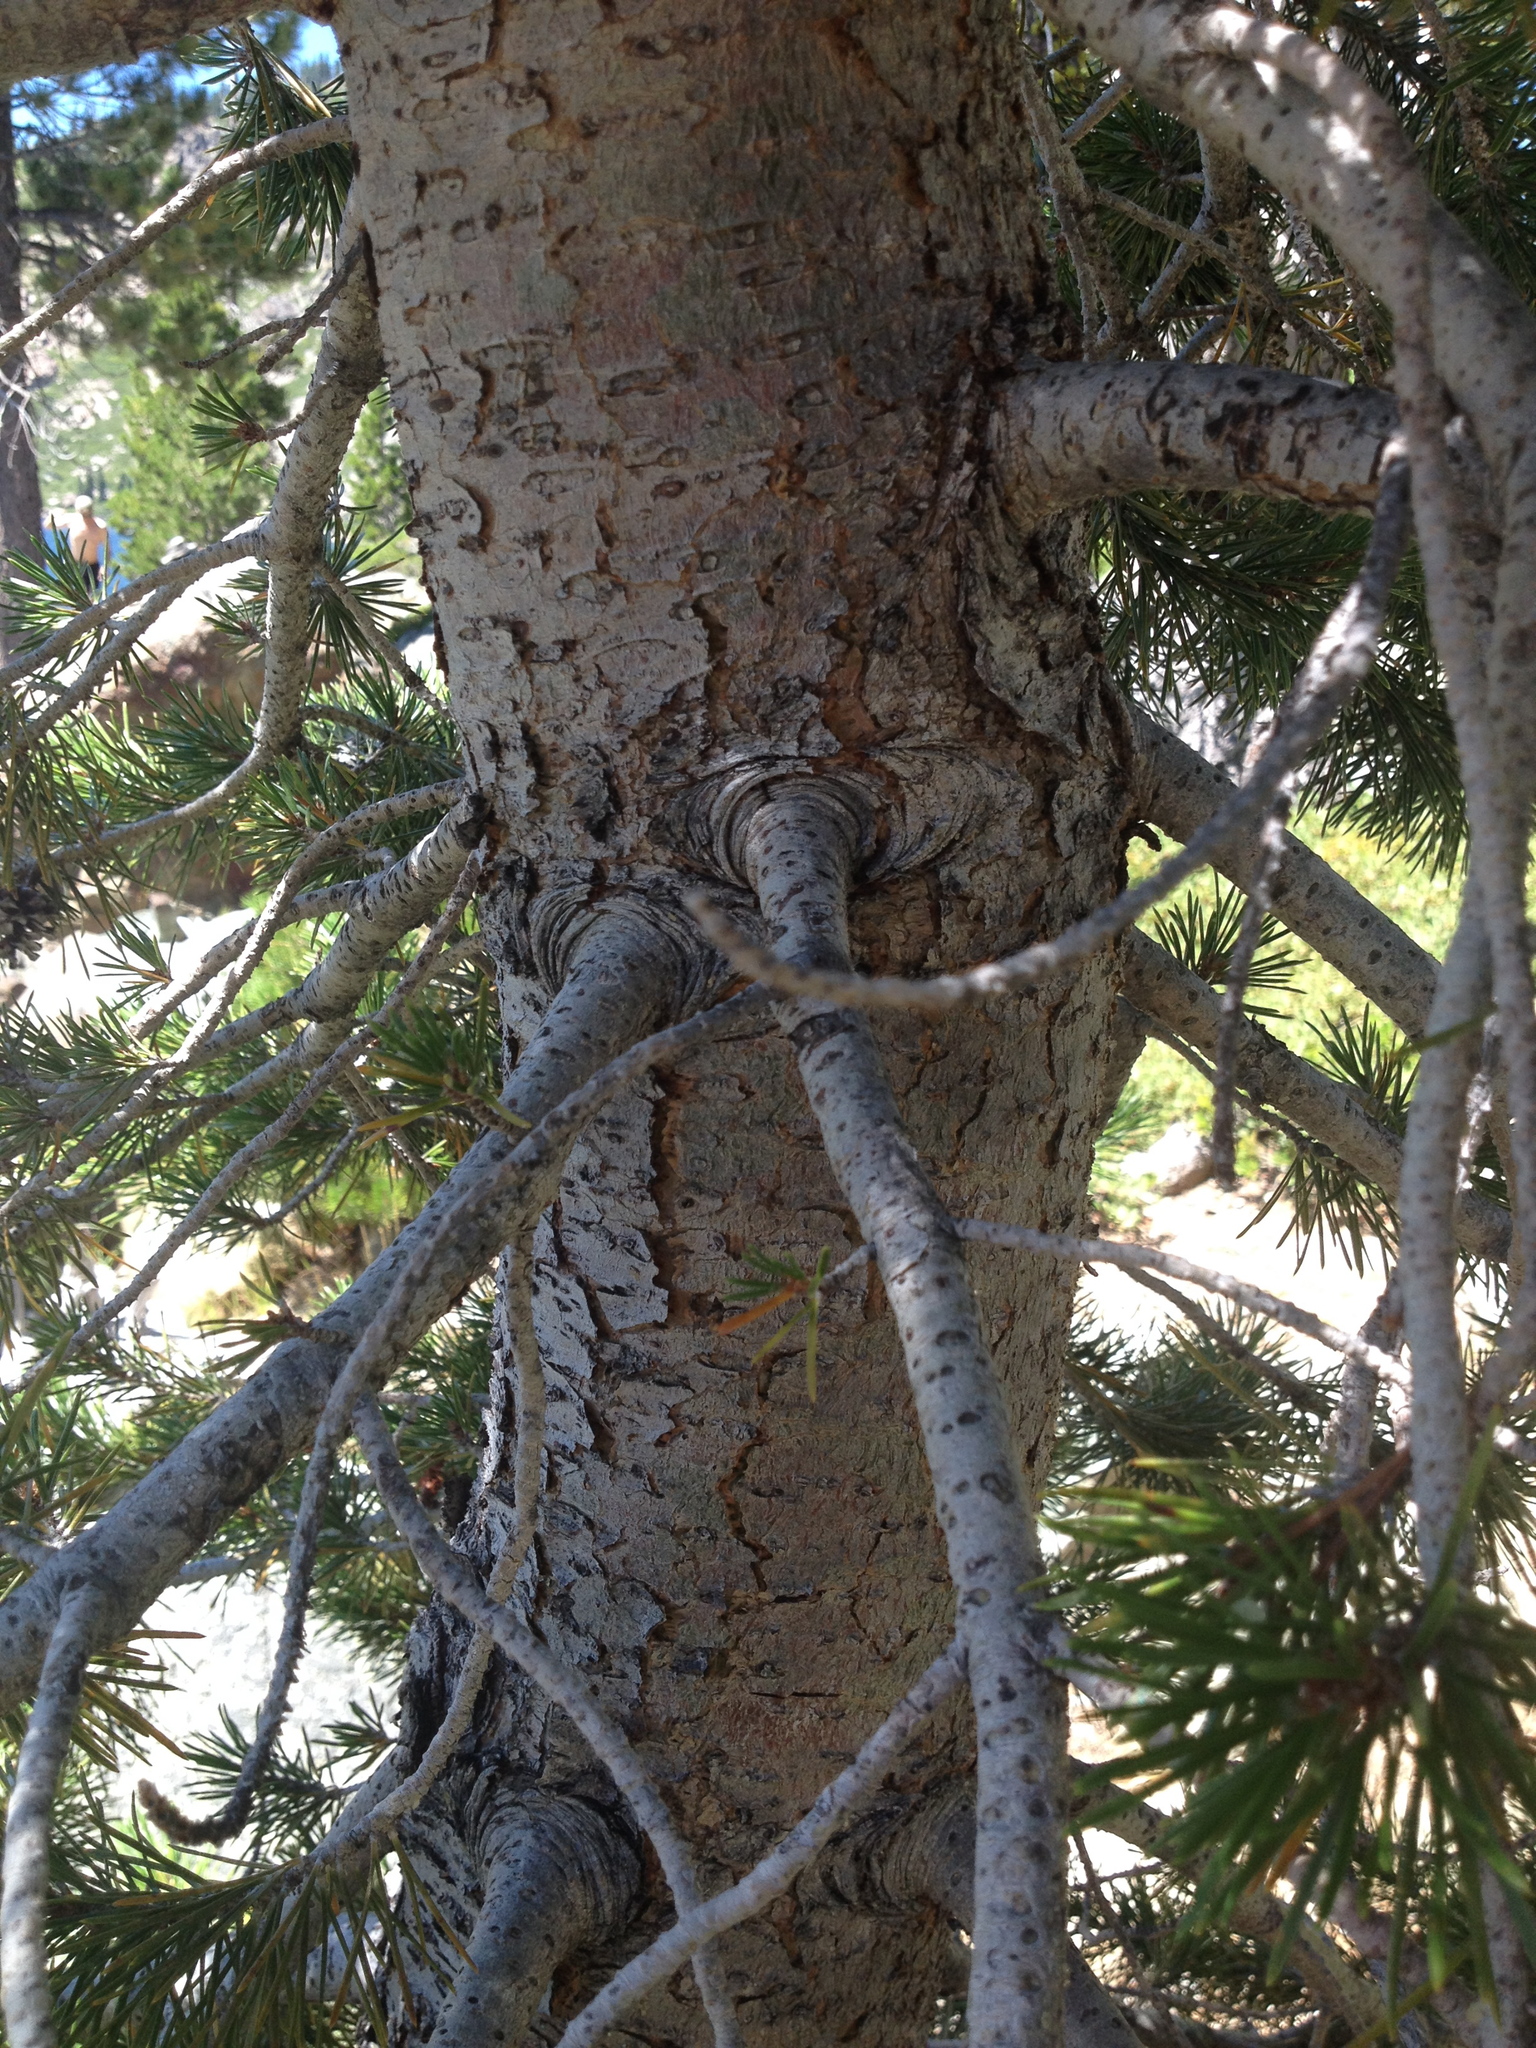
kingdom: Plantae
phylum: Tracheophyta
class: Pinopsida
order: Pinales
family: Pinaceae
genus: Pinus
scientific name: Pinus contorta
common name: Lodgepole pine
